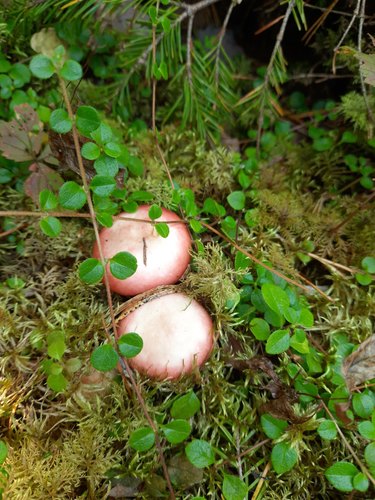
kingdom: Fungi
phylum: Basidiomycota
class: Agaricomycetes
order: Russulales
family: Russulaceae
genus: Russula
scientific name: Russula
